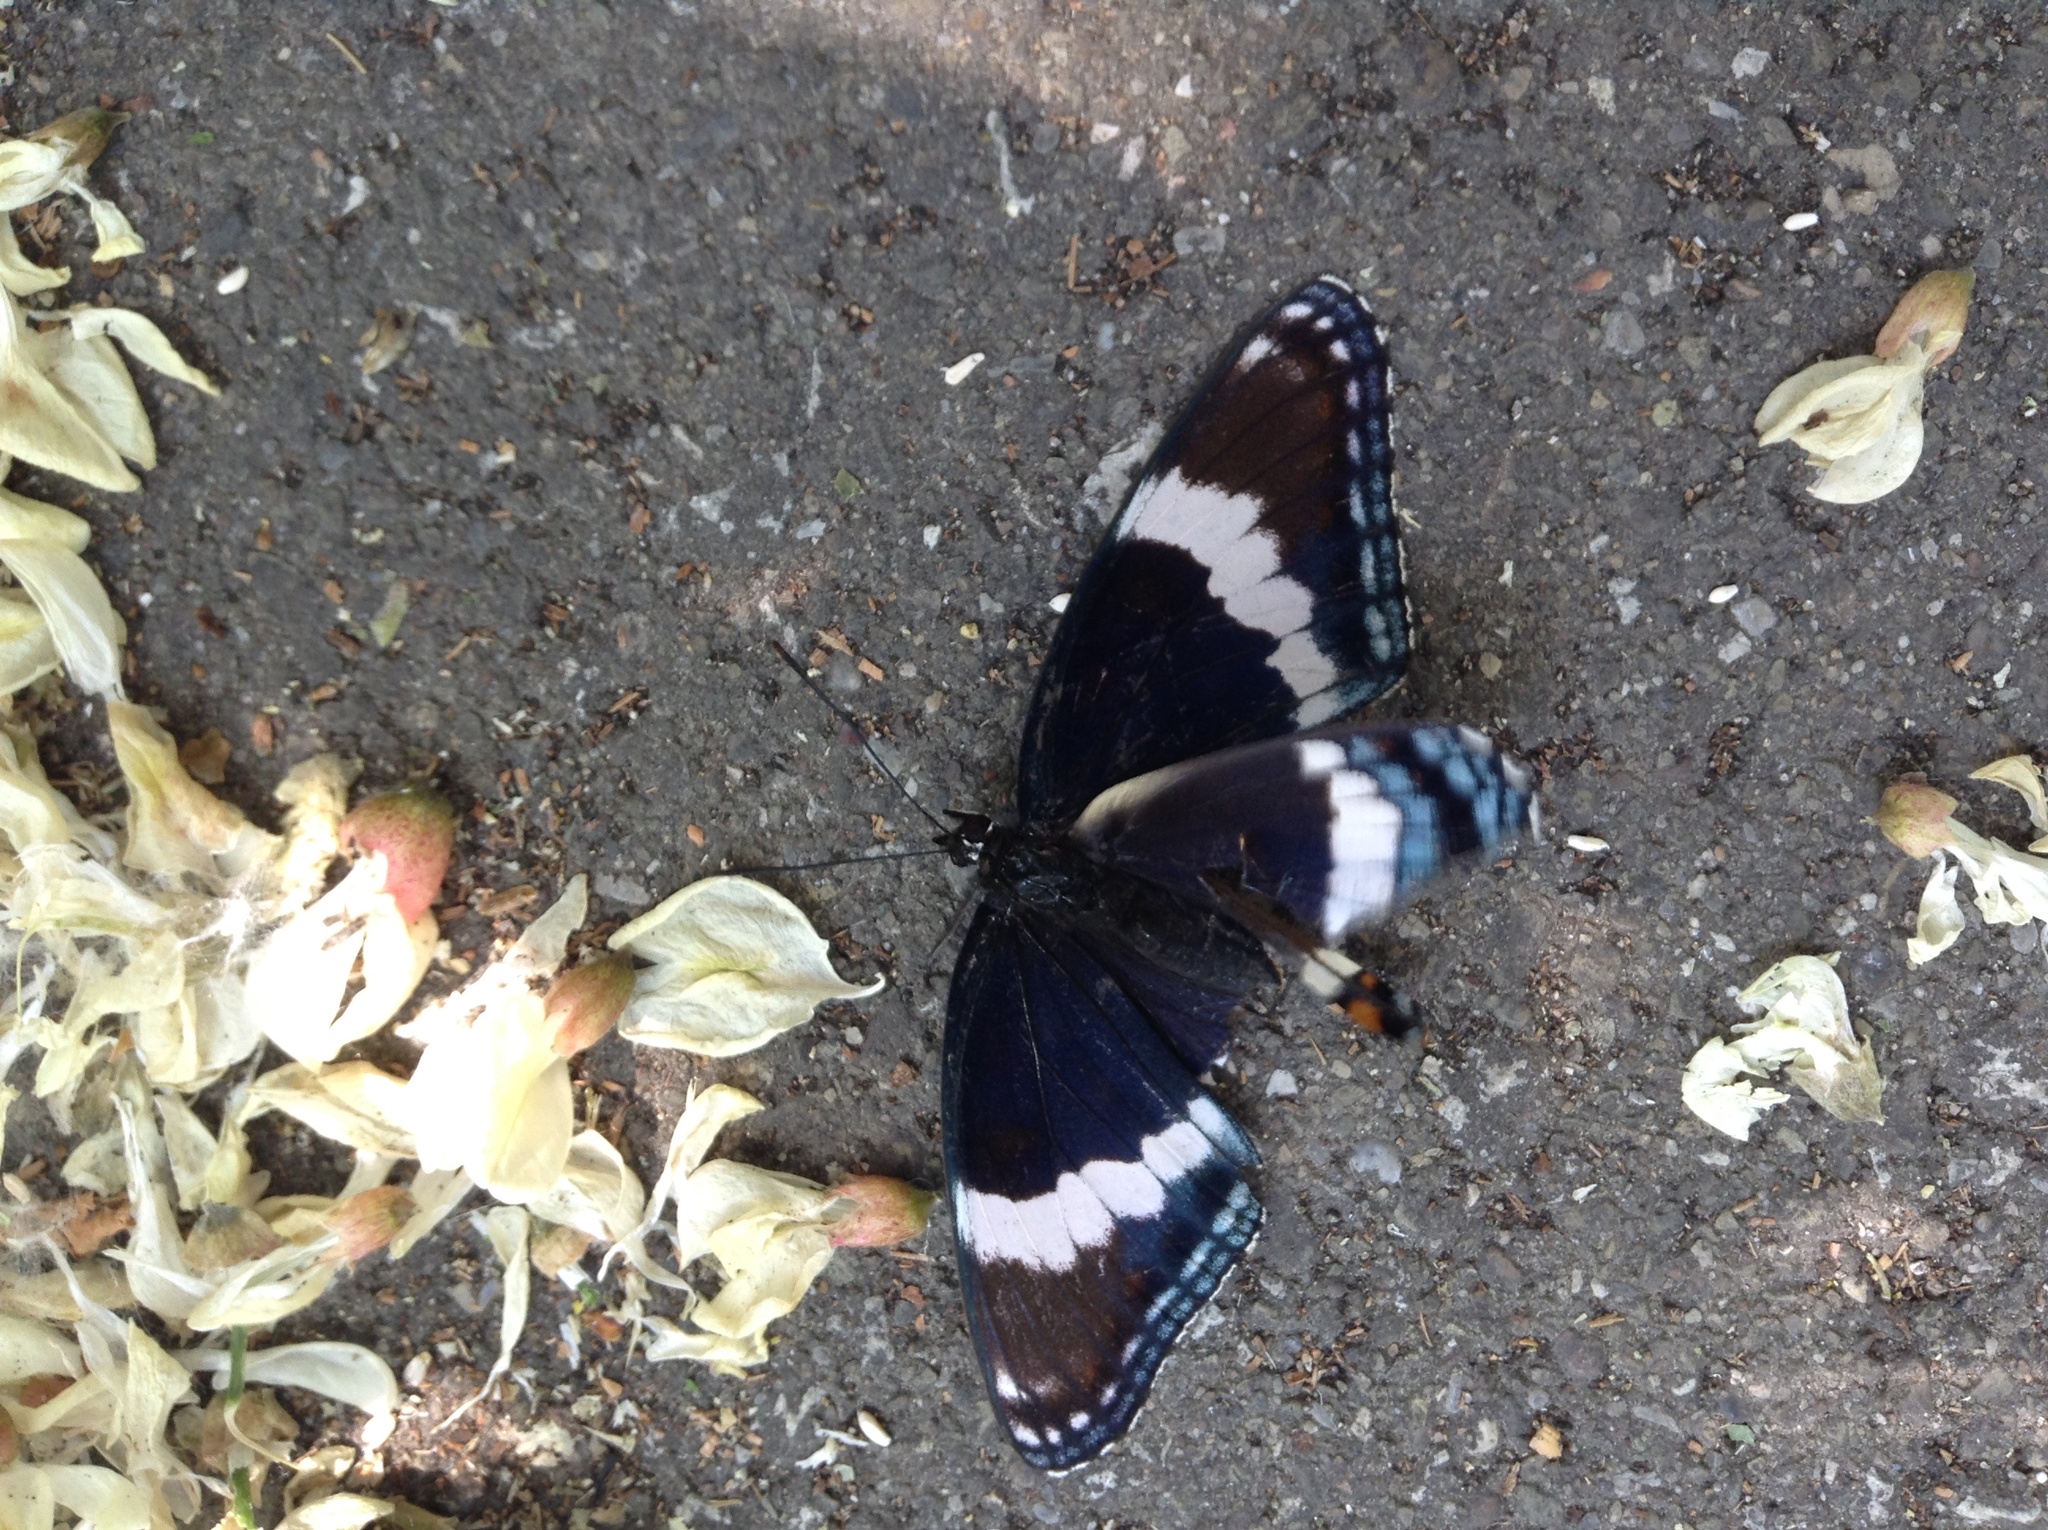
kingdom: Animalia
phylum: Arthropoda
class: Insecta
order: Lepidoptera
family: Nymphalidae
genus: Limenitis
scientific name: Limenitis arthemis
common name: Red-spotted admiral
